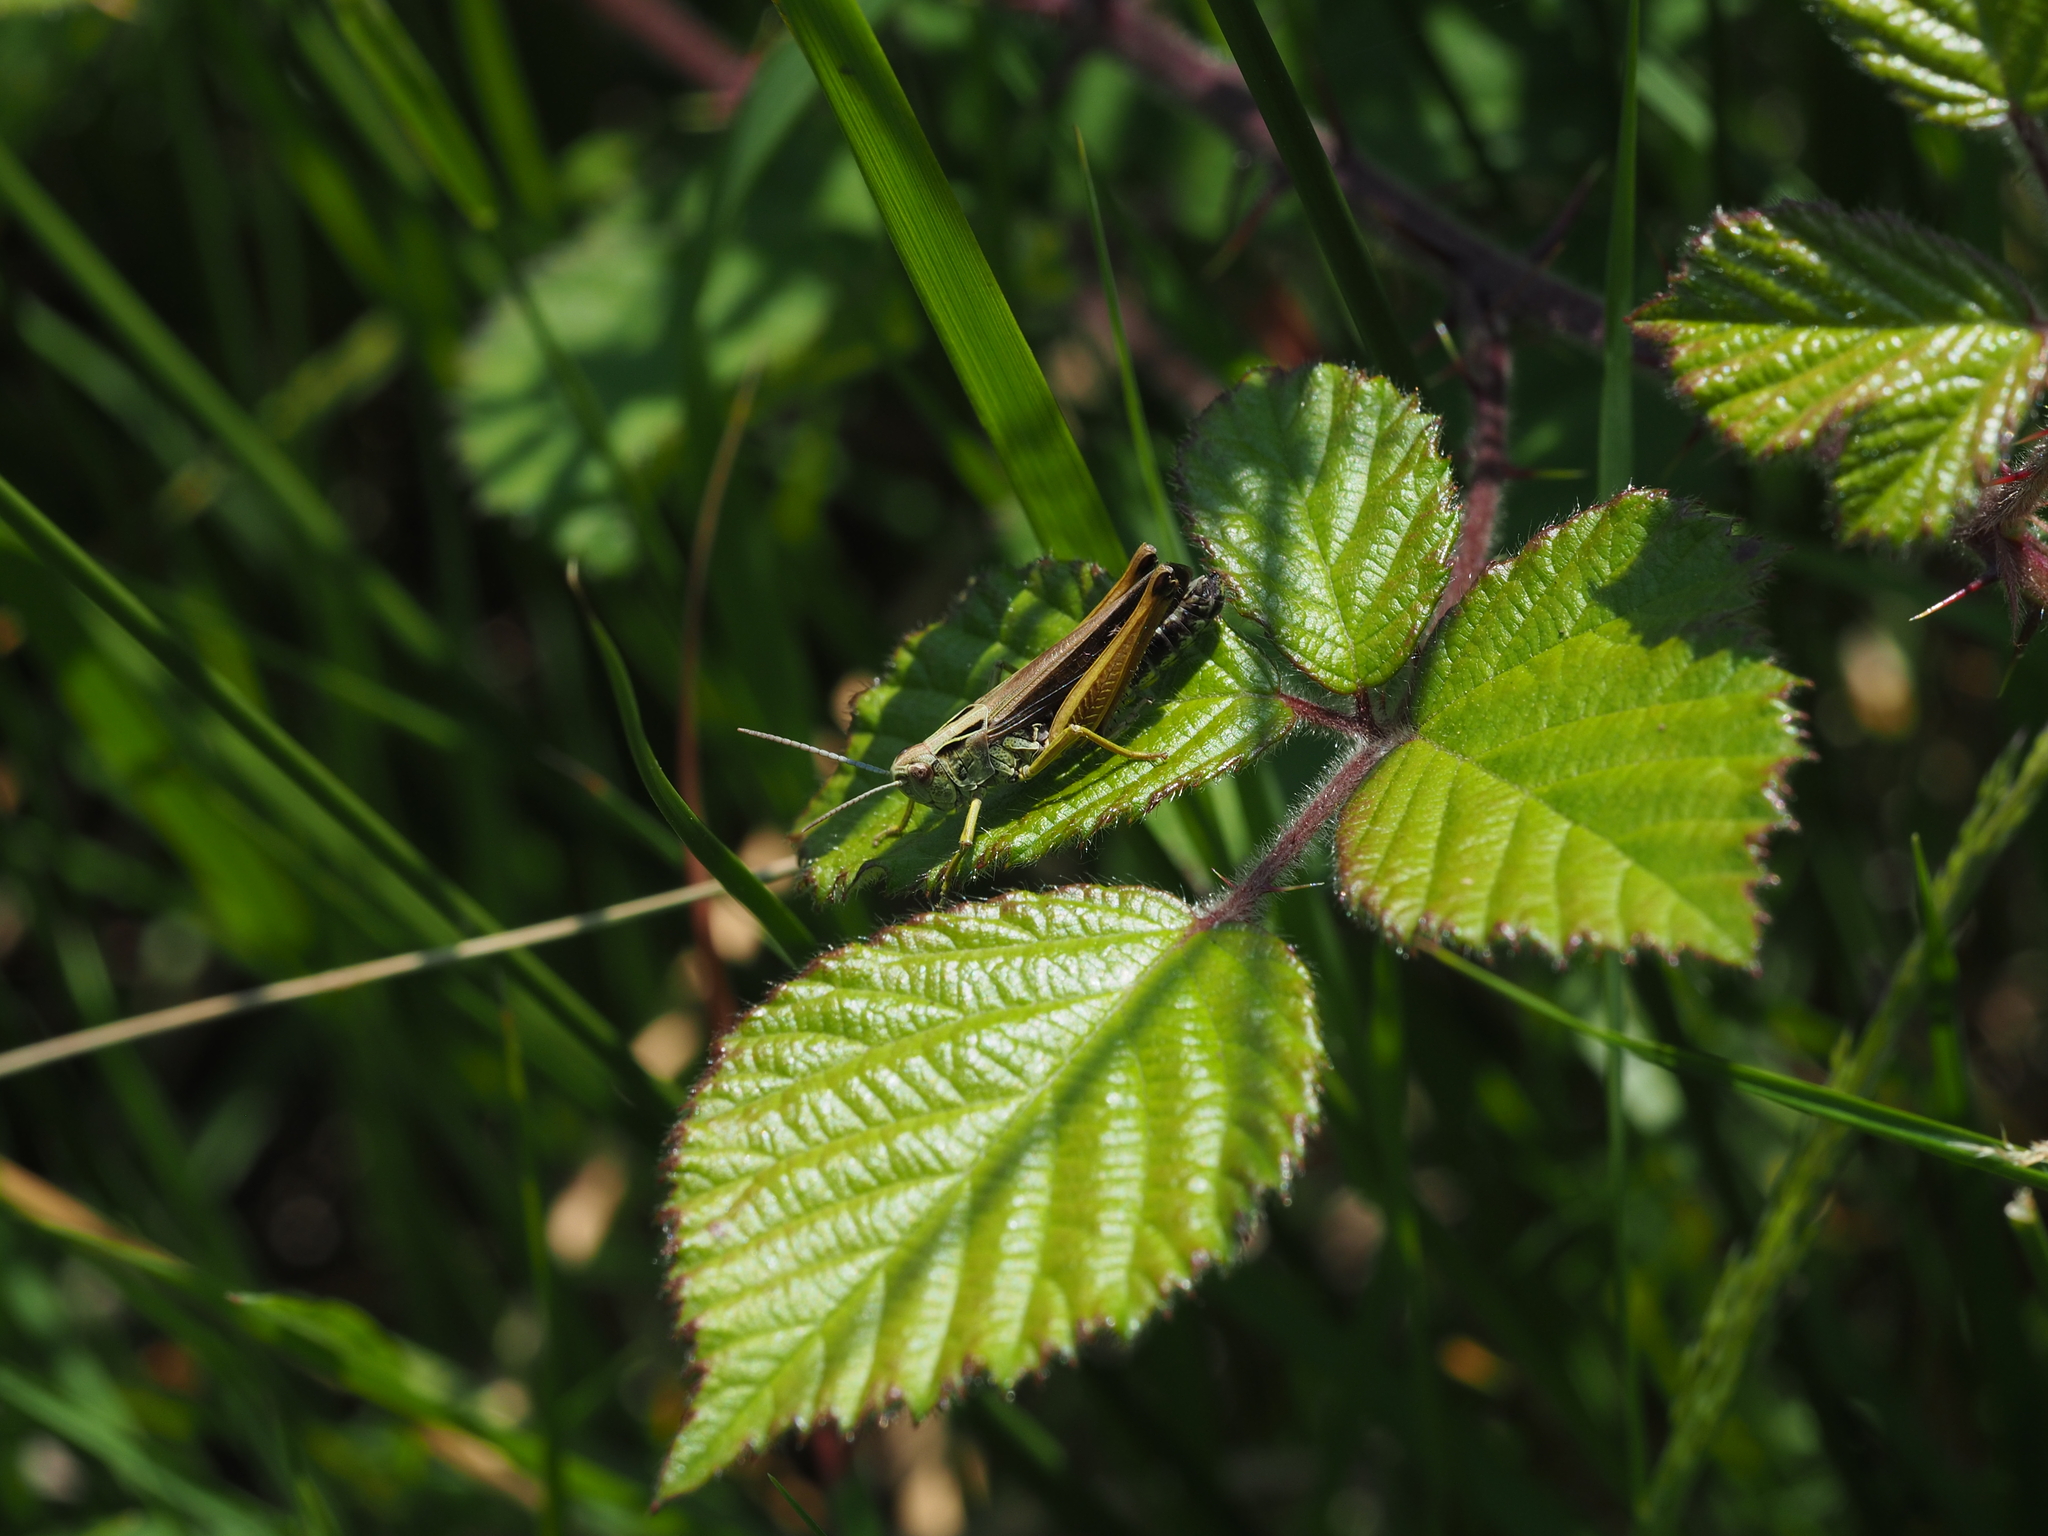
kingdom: Animalia
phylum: Arthropoda
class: Insecta
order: Orthoptera
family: Acrididae
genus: Omocestus
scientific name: Omocestus viridulus
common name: Common green grasshopper
